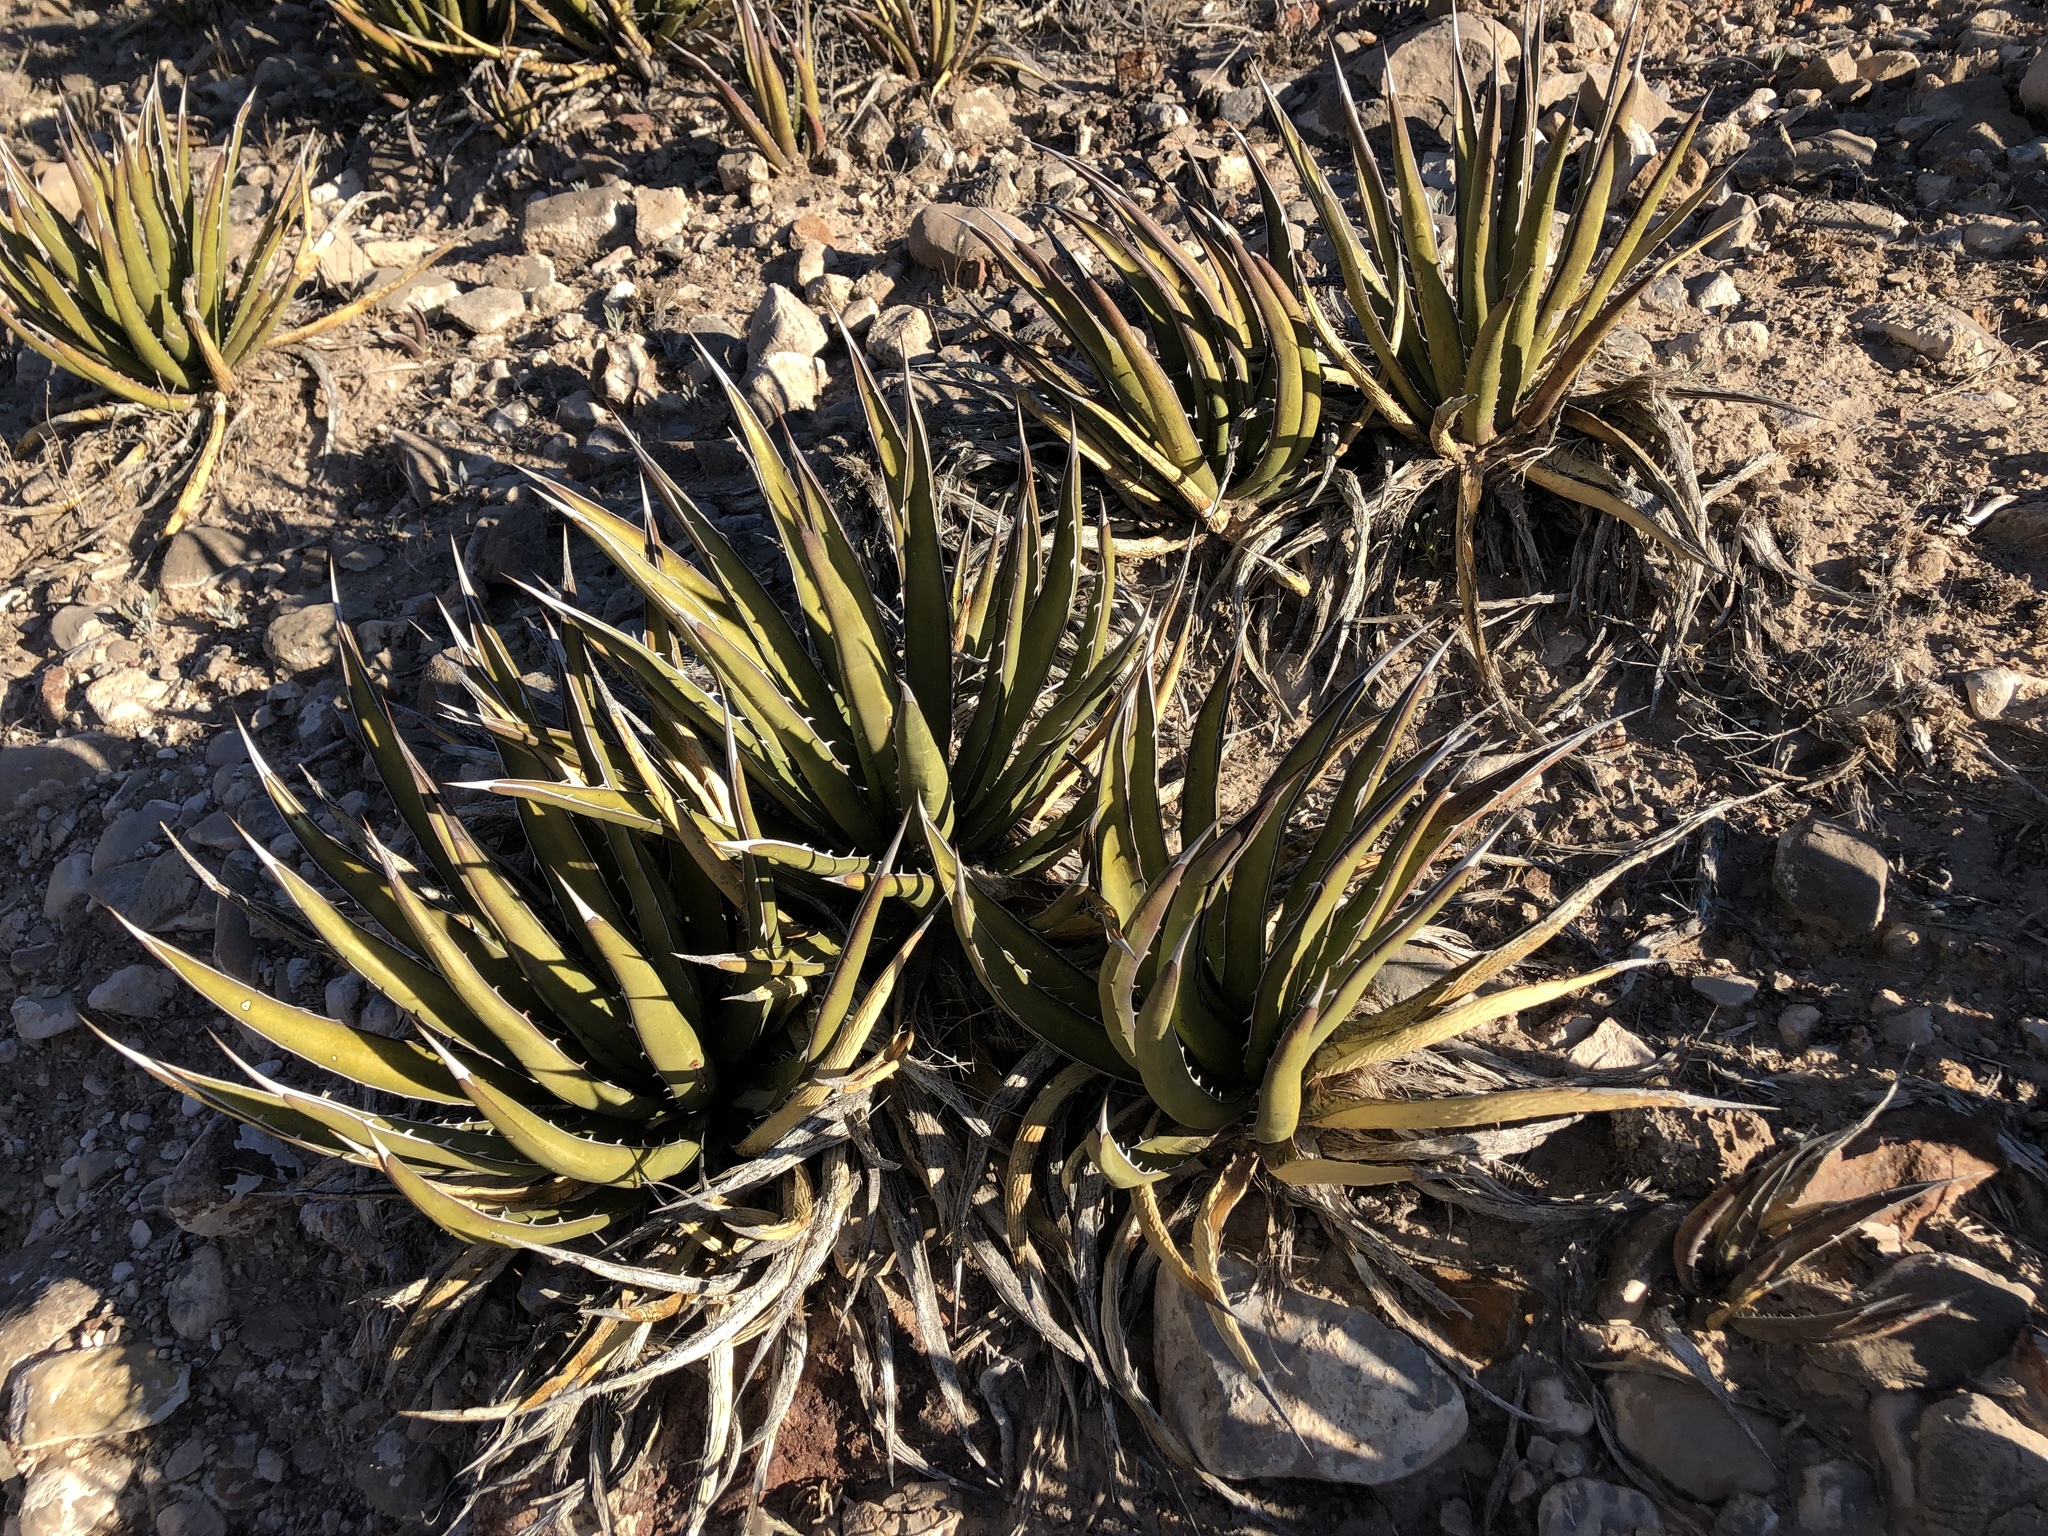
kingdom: Plantae
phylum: Tracheophyta
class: Liliopsida
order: Asparagales
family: Asparagaceae
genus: Agave
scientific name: Agave lechuguilla
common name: Lecheguilla agave
